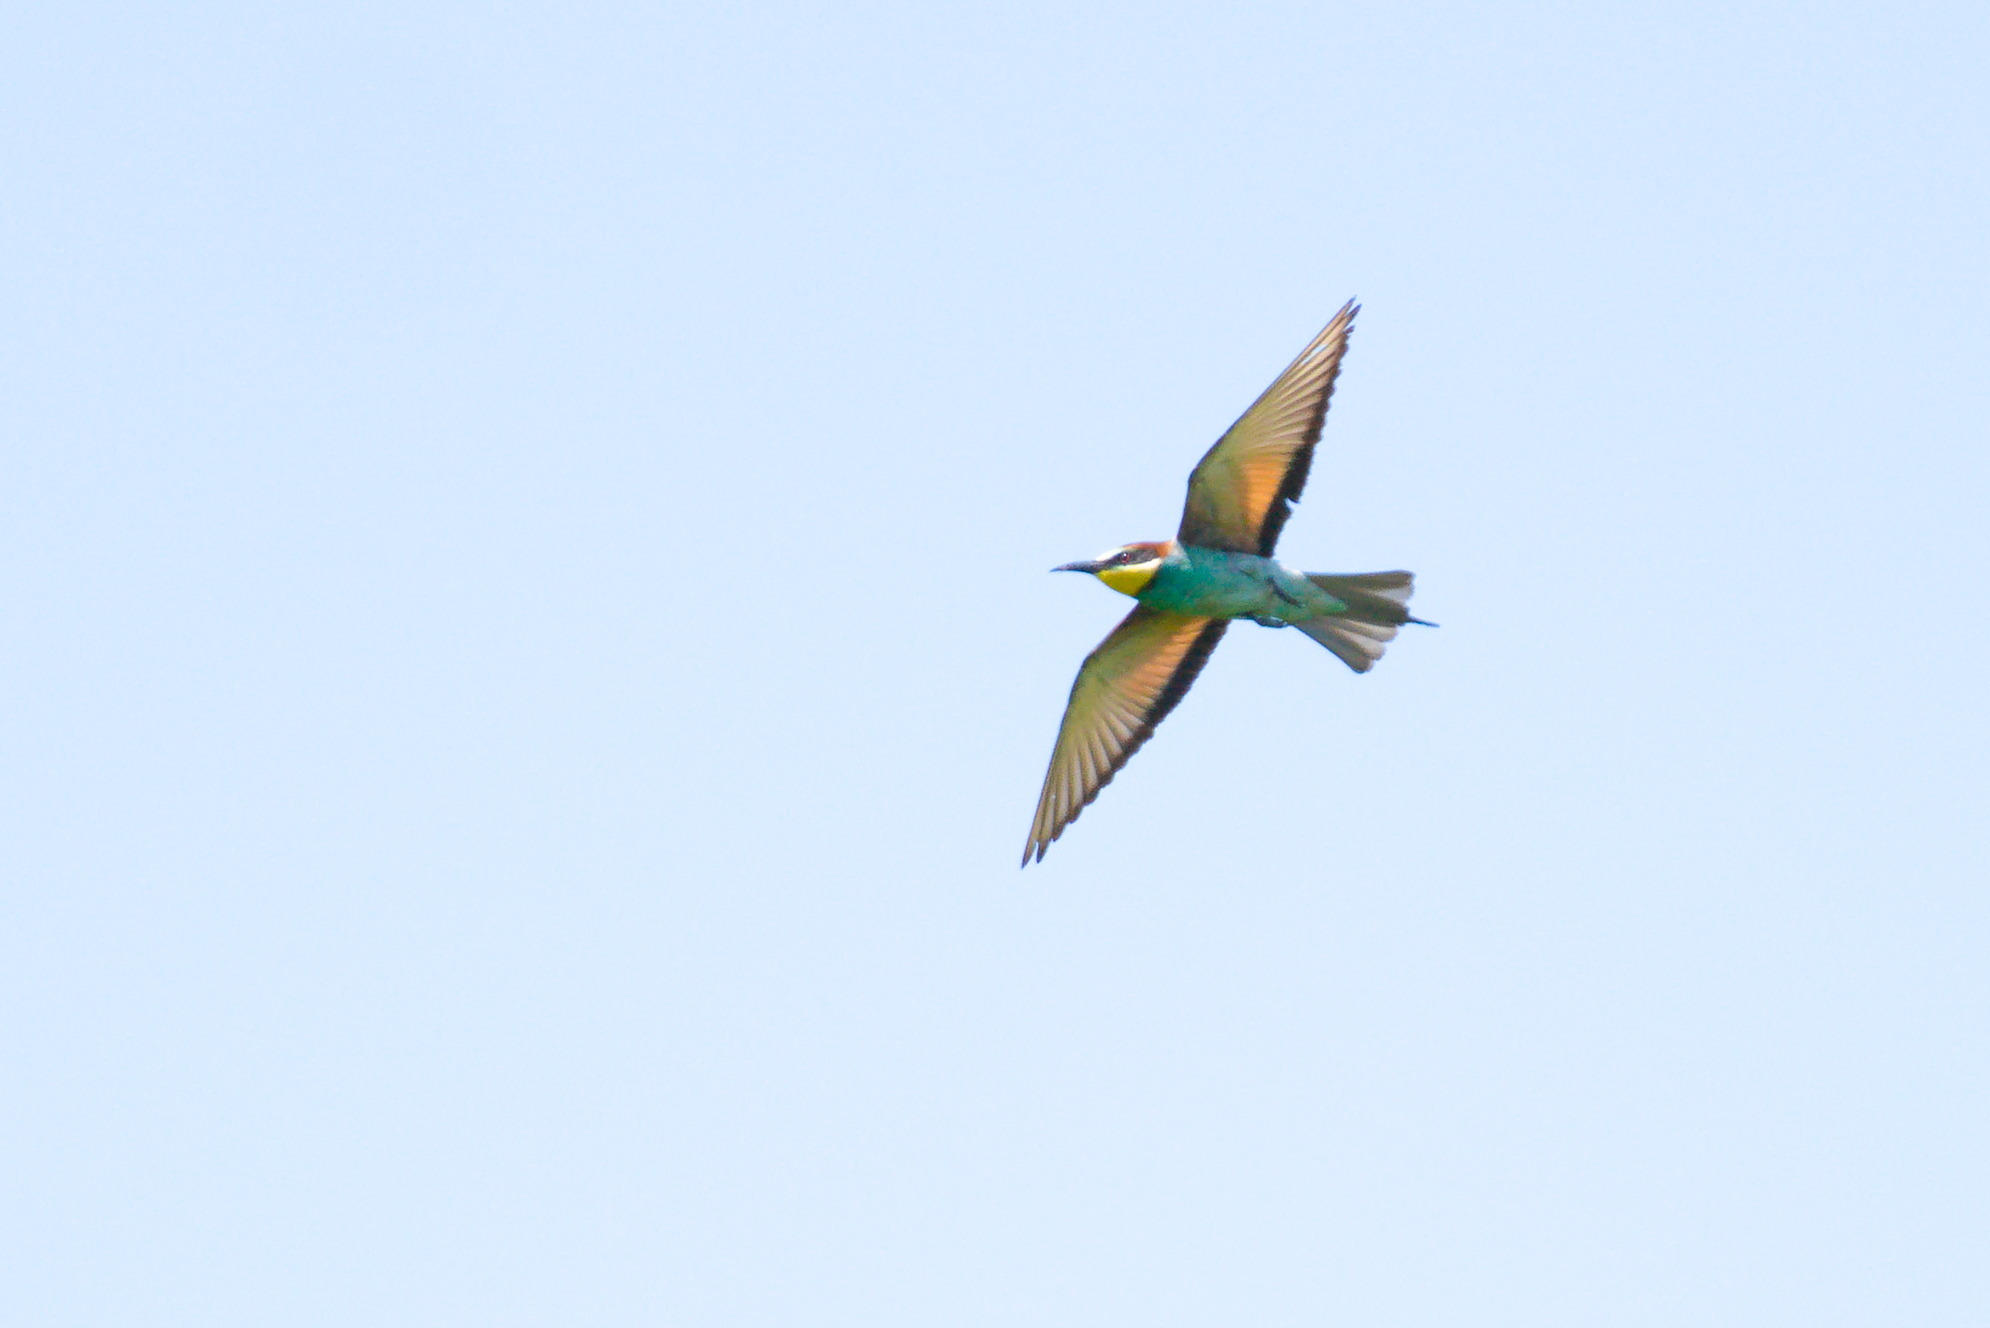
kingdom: Animalia
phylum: Chordata
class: Aves
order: Coraciiformes
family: Meropidae
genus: Merops
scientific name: Merops apiaster
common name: European bee-eater
